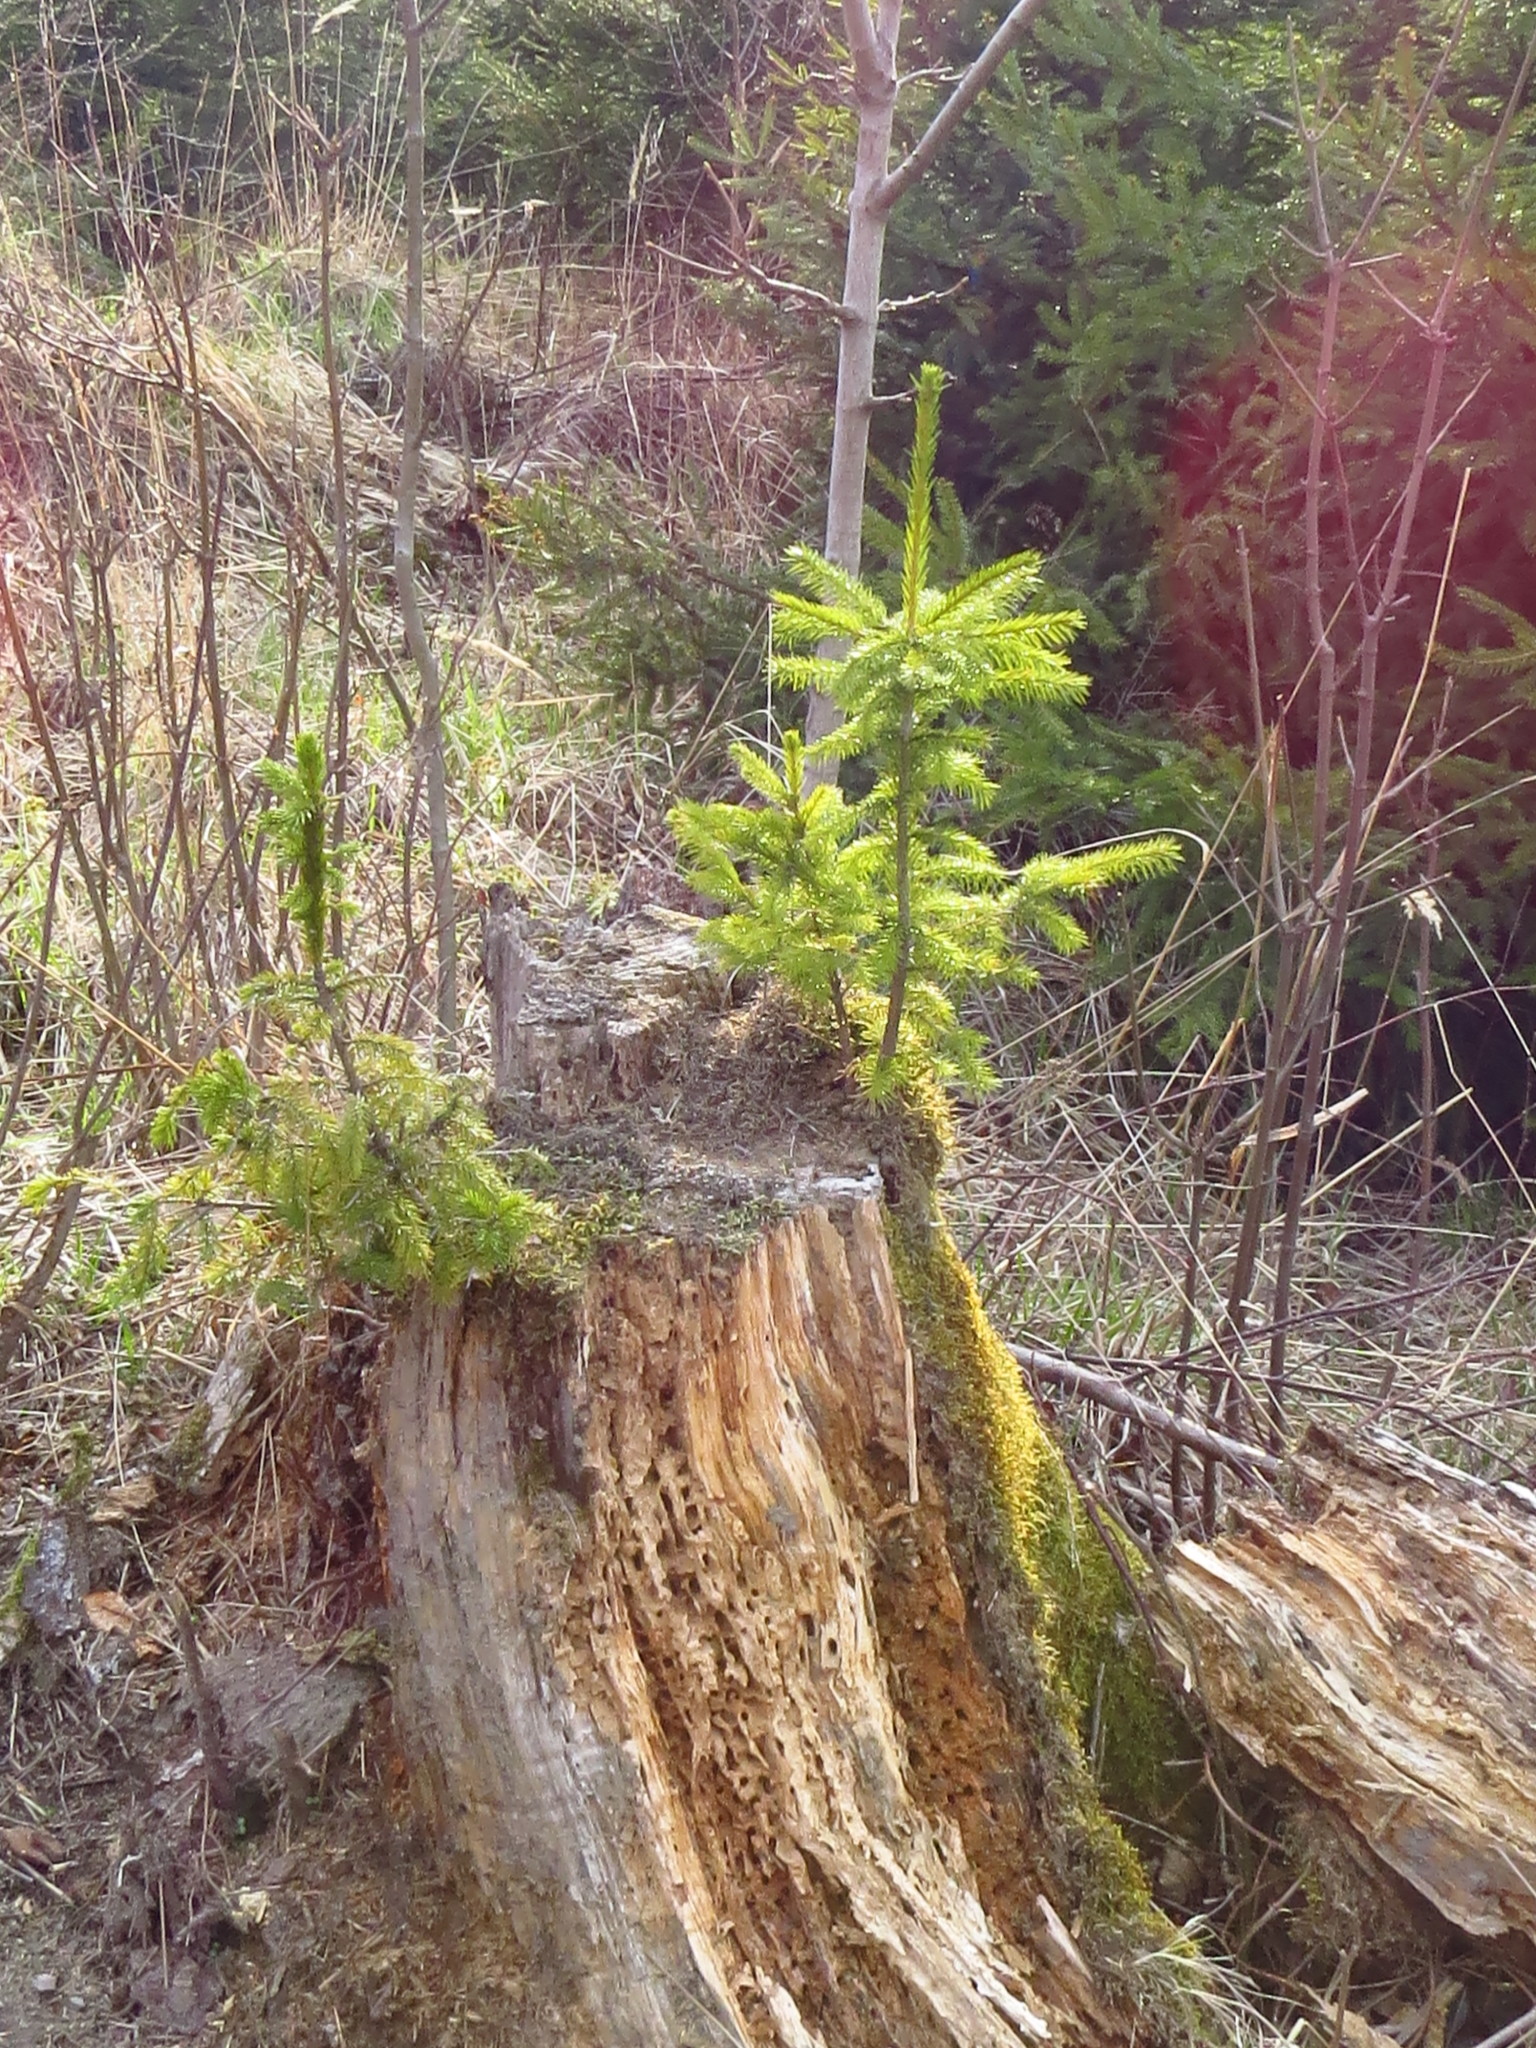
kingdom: Plantae
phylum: Tracheophyta
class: Pinopsida
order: Pinales
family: Pinaceae
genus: Picea
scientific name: Picea abies
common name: Norway spruce
